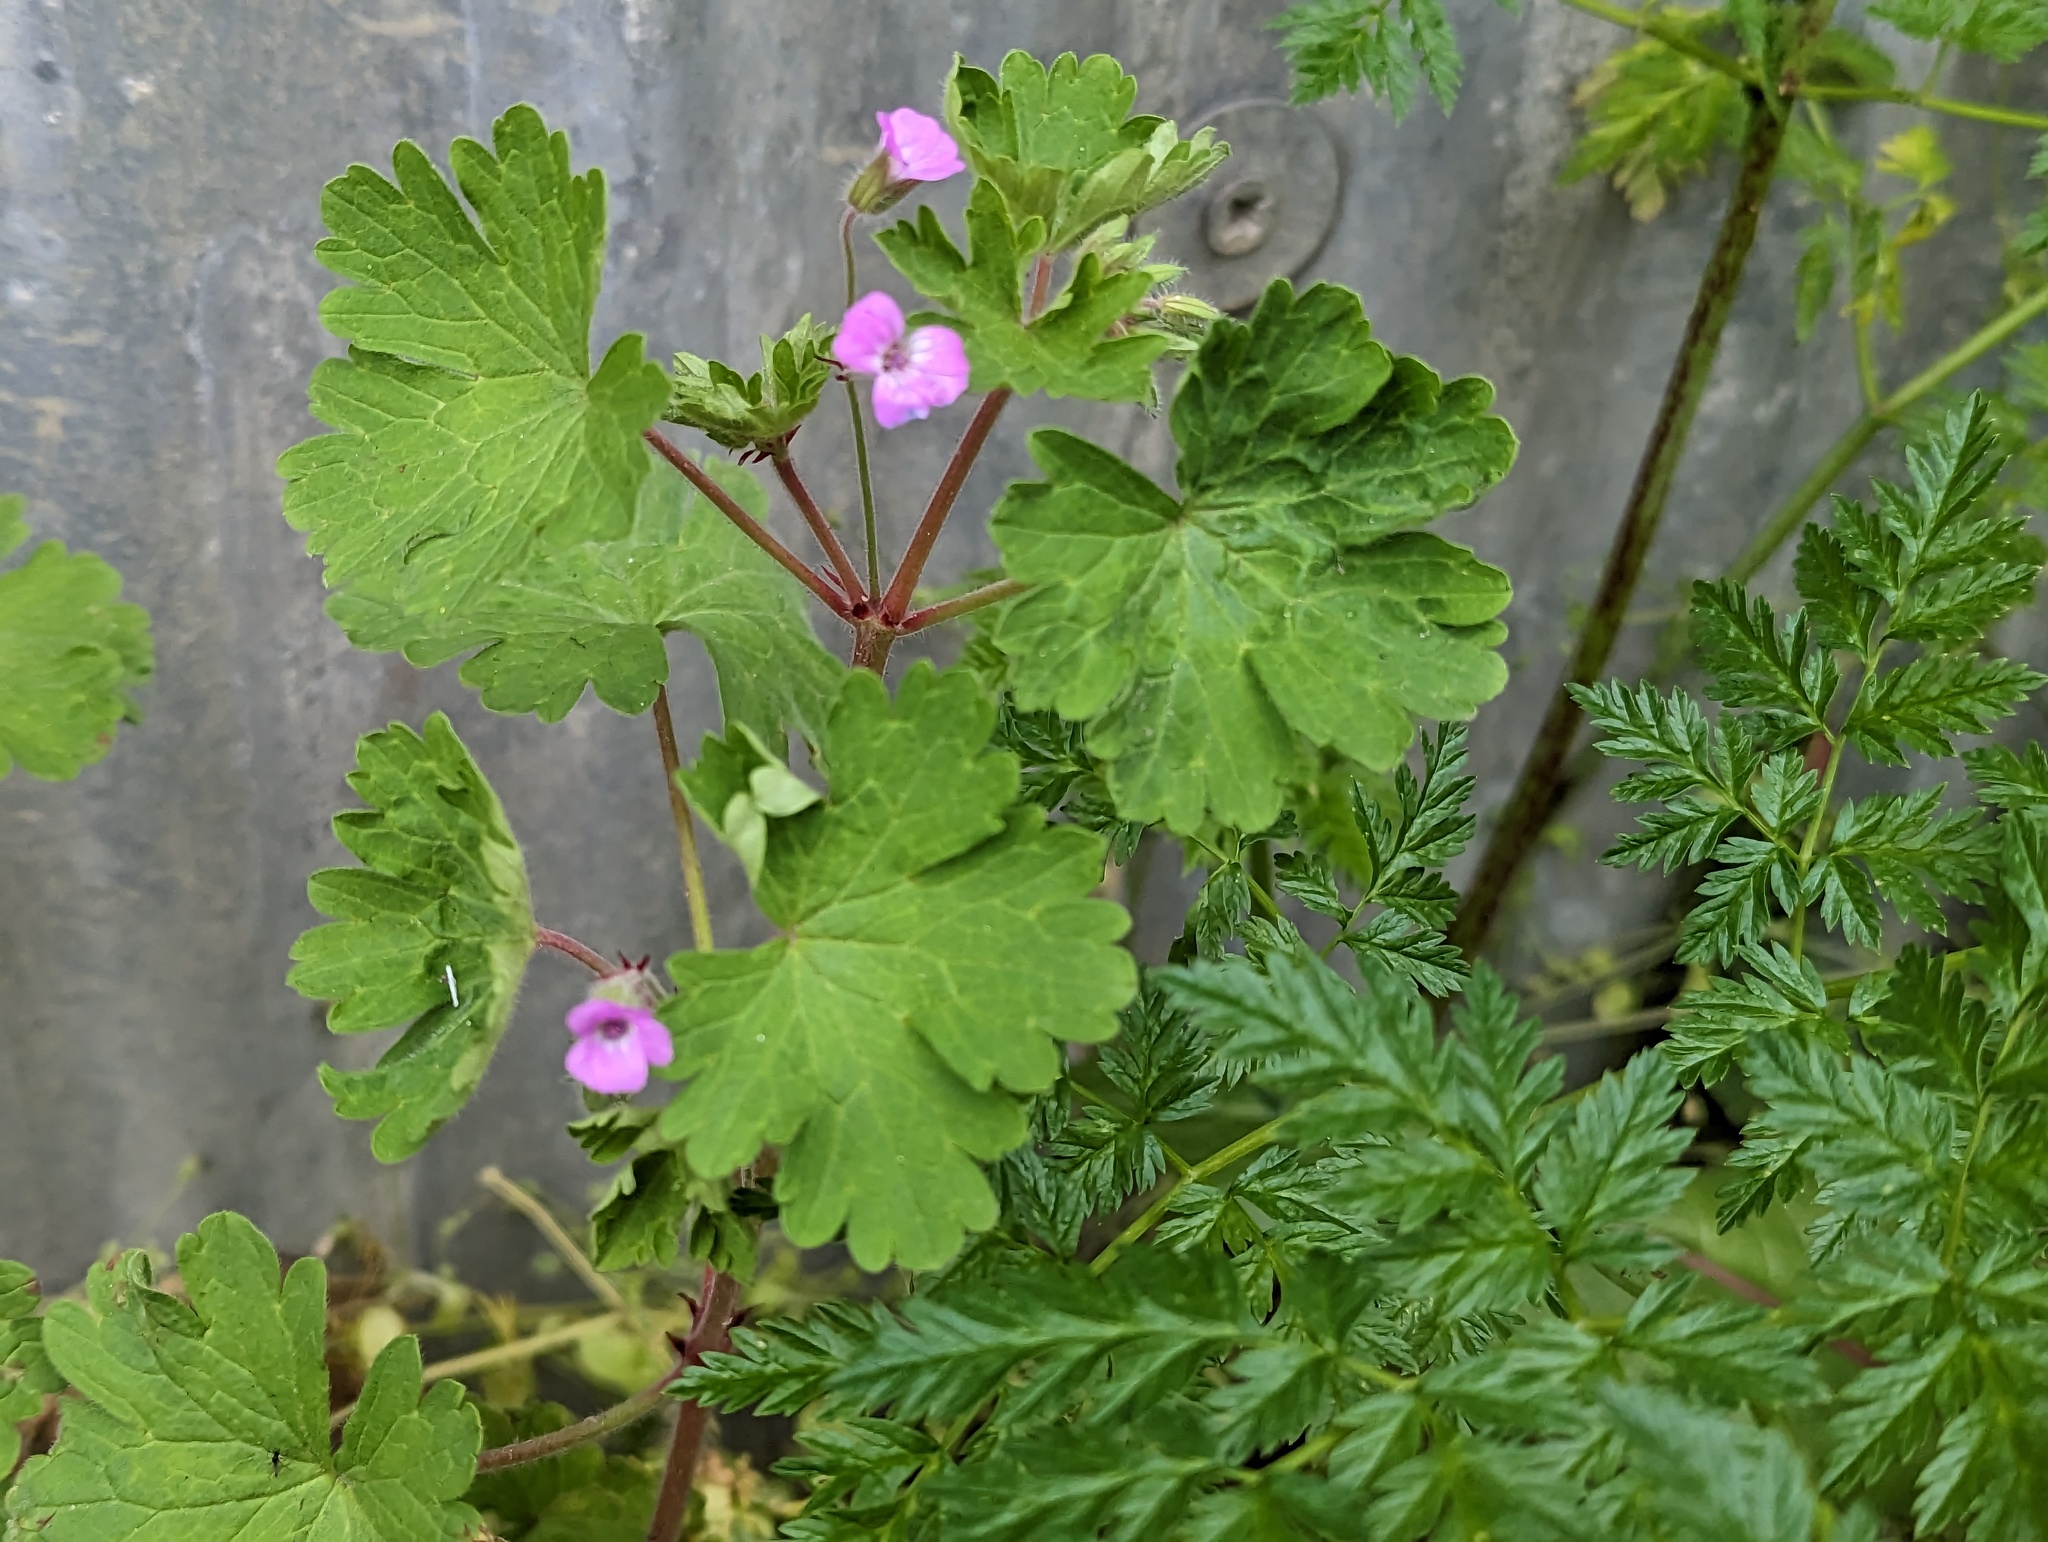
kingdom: Plantae
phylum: Tracheophyta
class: Magnoliopsida
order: Geraniales
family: Geraniaceae
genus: Geranium
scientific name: Geranium rotundifolium
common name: Round-leaved crane's-bill
